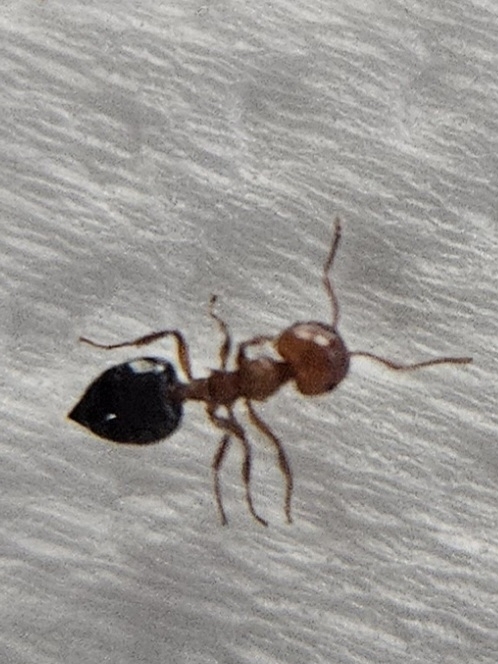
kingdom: Animalia
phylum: Arthropoda
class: Insecta
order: Hymenoptera
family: Formicidae
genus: Crematogaster
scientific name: Crematogaster laeviuscula
